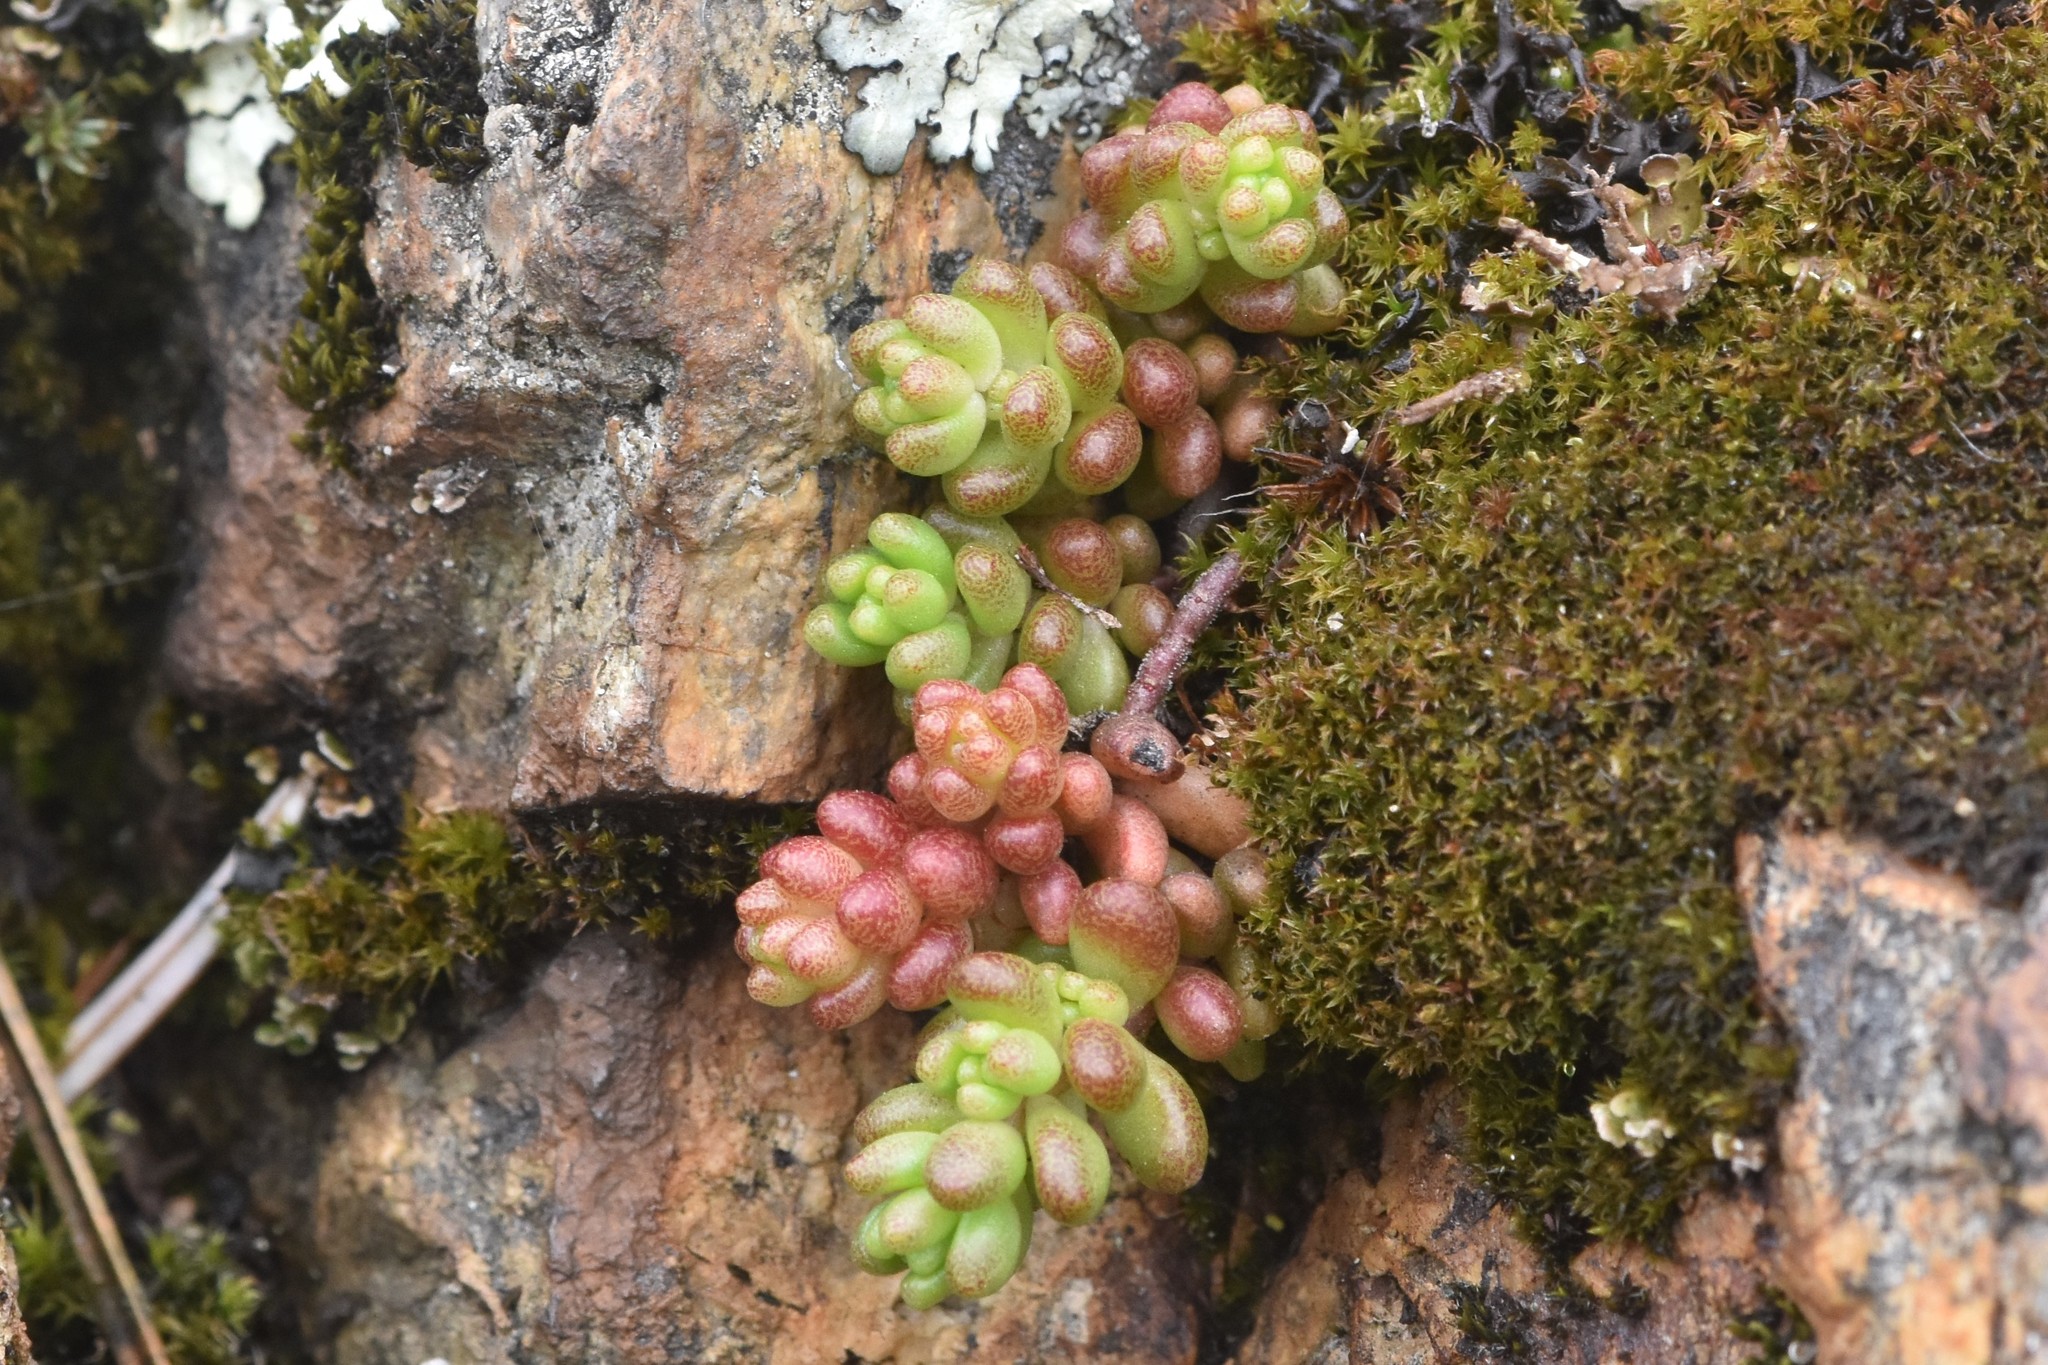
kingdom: Plantae
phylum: Tracheophyta
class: Magnoliopsida
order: Saxifragales
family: Crassulaceae
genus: Sedum
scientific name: Sedum album
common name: White stonecrop
